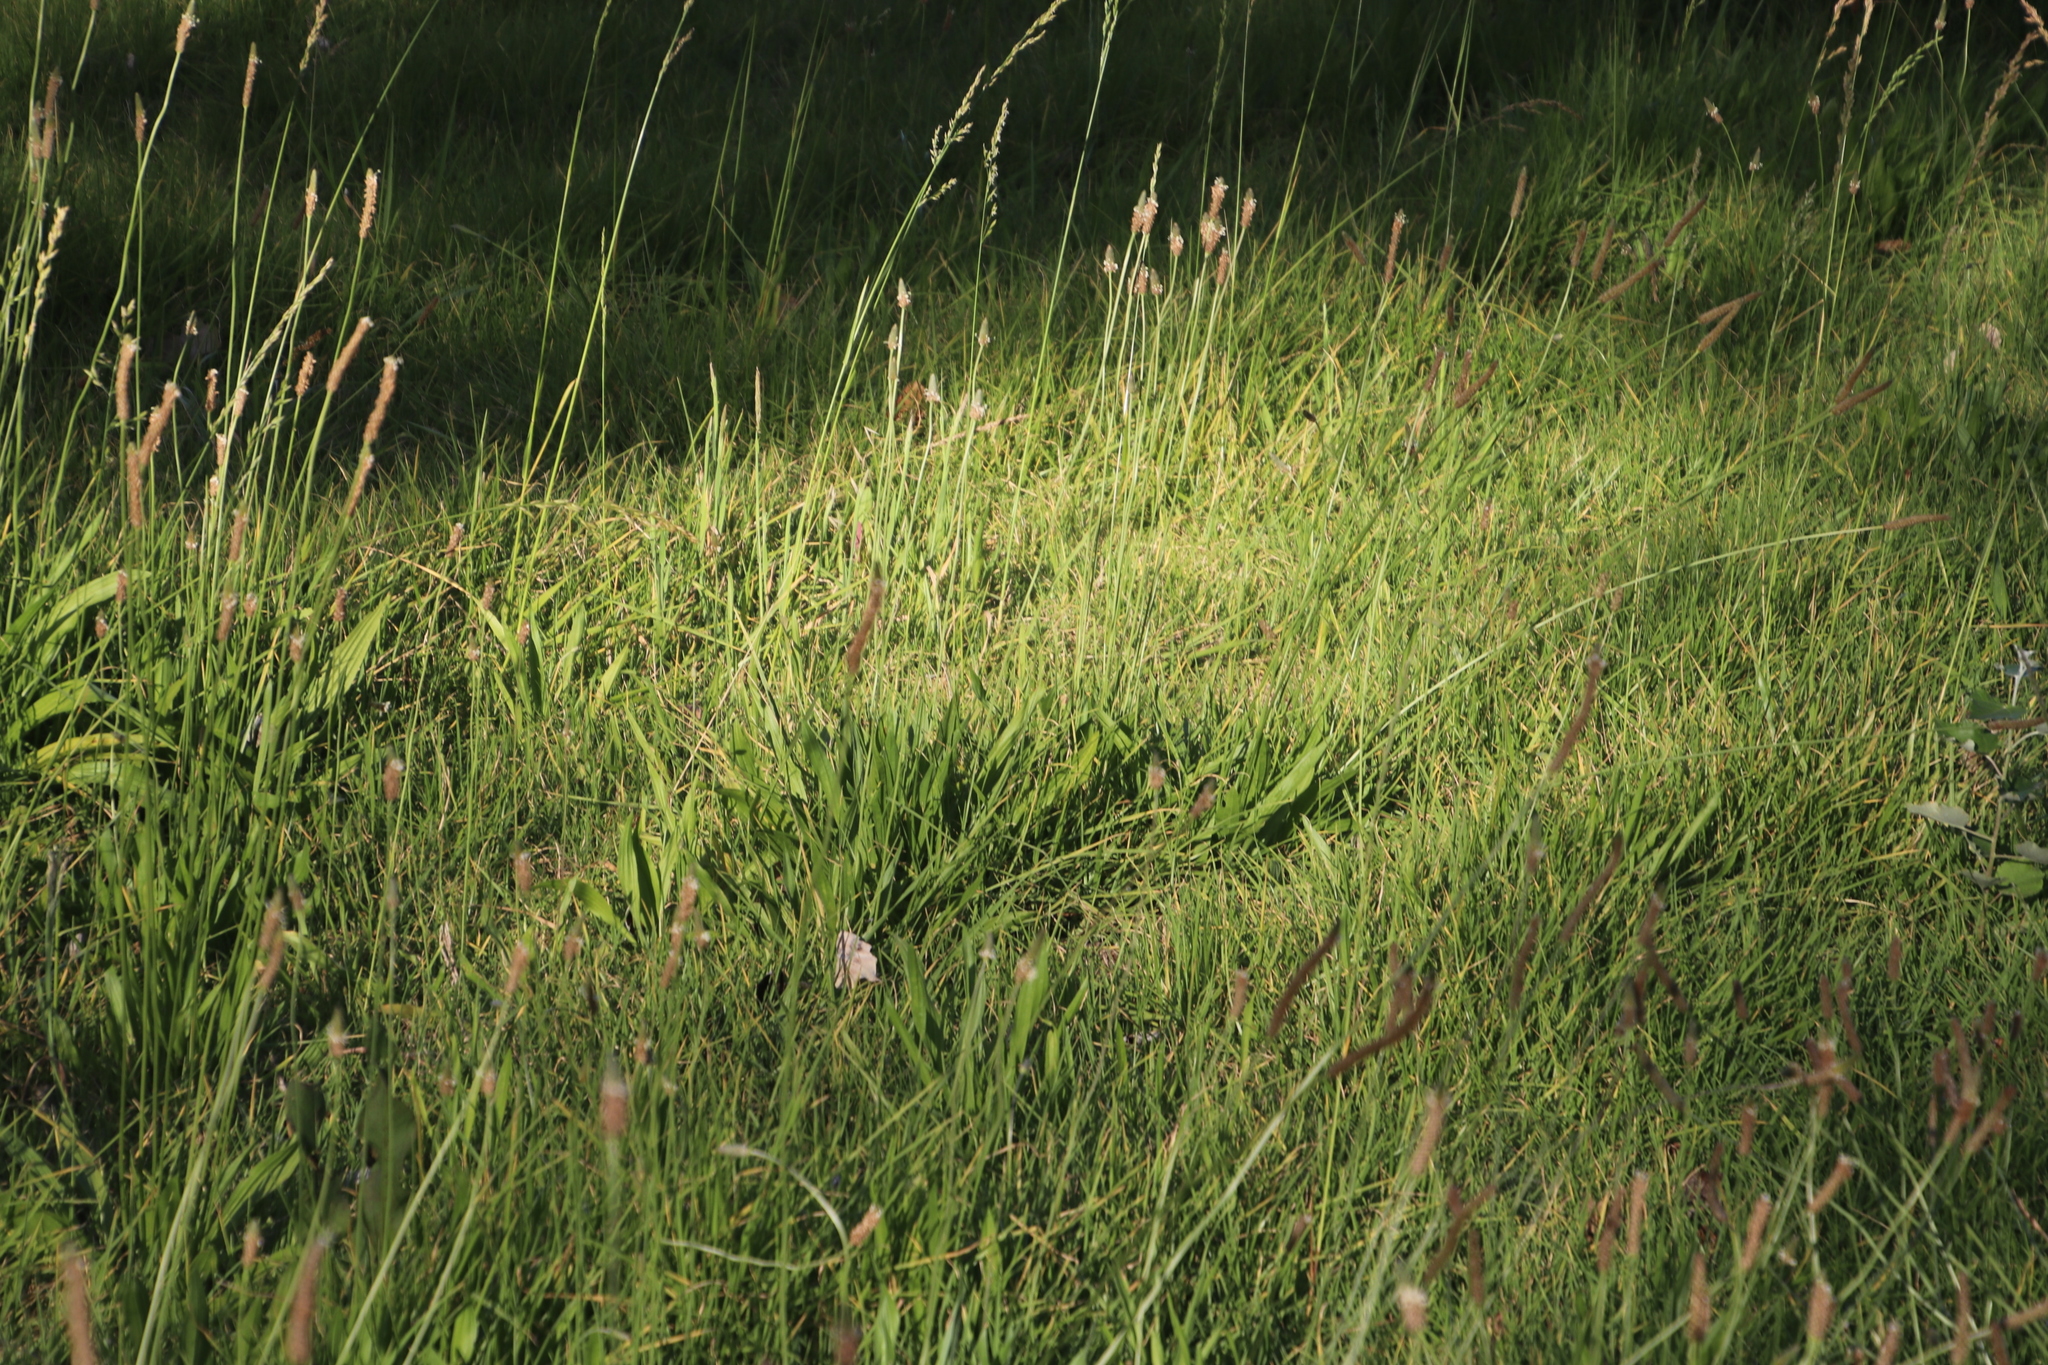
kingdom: Plantae
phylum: Tracheophyta
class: Magnoliopsida
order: Lamiales
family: Plantaginaceae
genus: Plantago
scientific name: Plantago lanceolata
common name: Ribwort plantain
